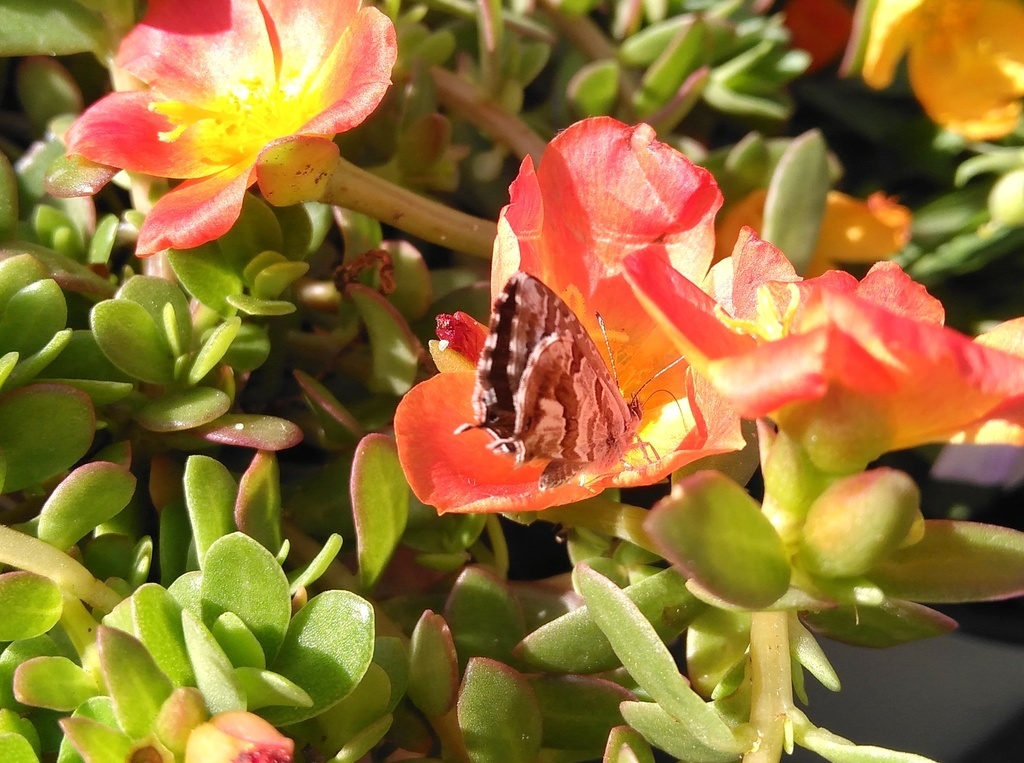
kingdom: Animalia
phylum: Arthropoda
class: Insecta
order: Lepidoptera
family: Lycaenidae
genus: Cacyreus
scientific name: Cacyreus marshalli
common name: Geranium bronze
